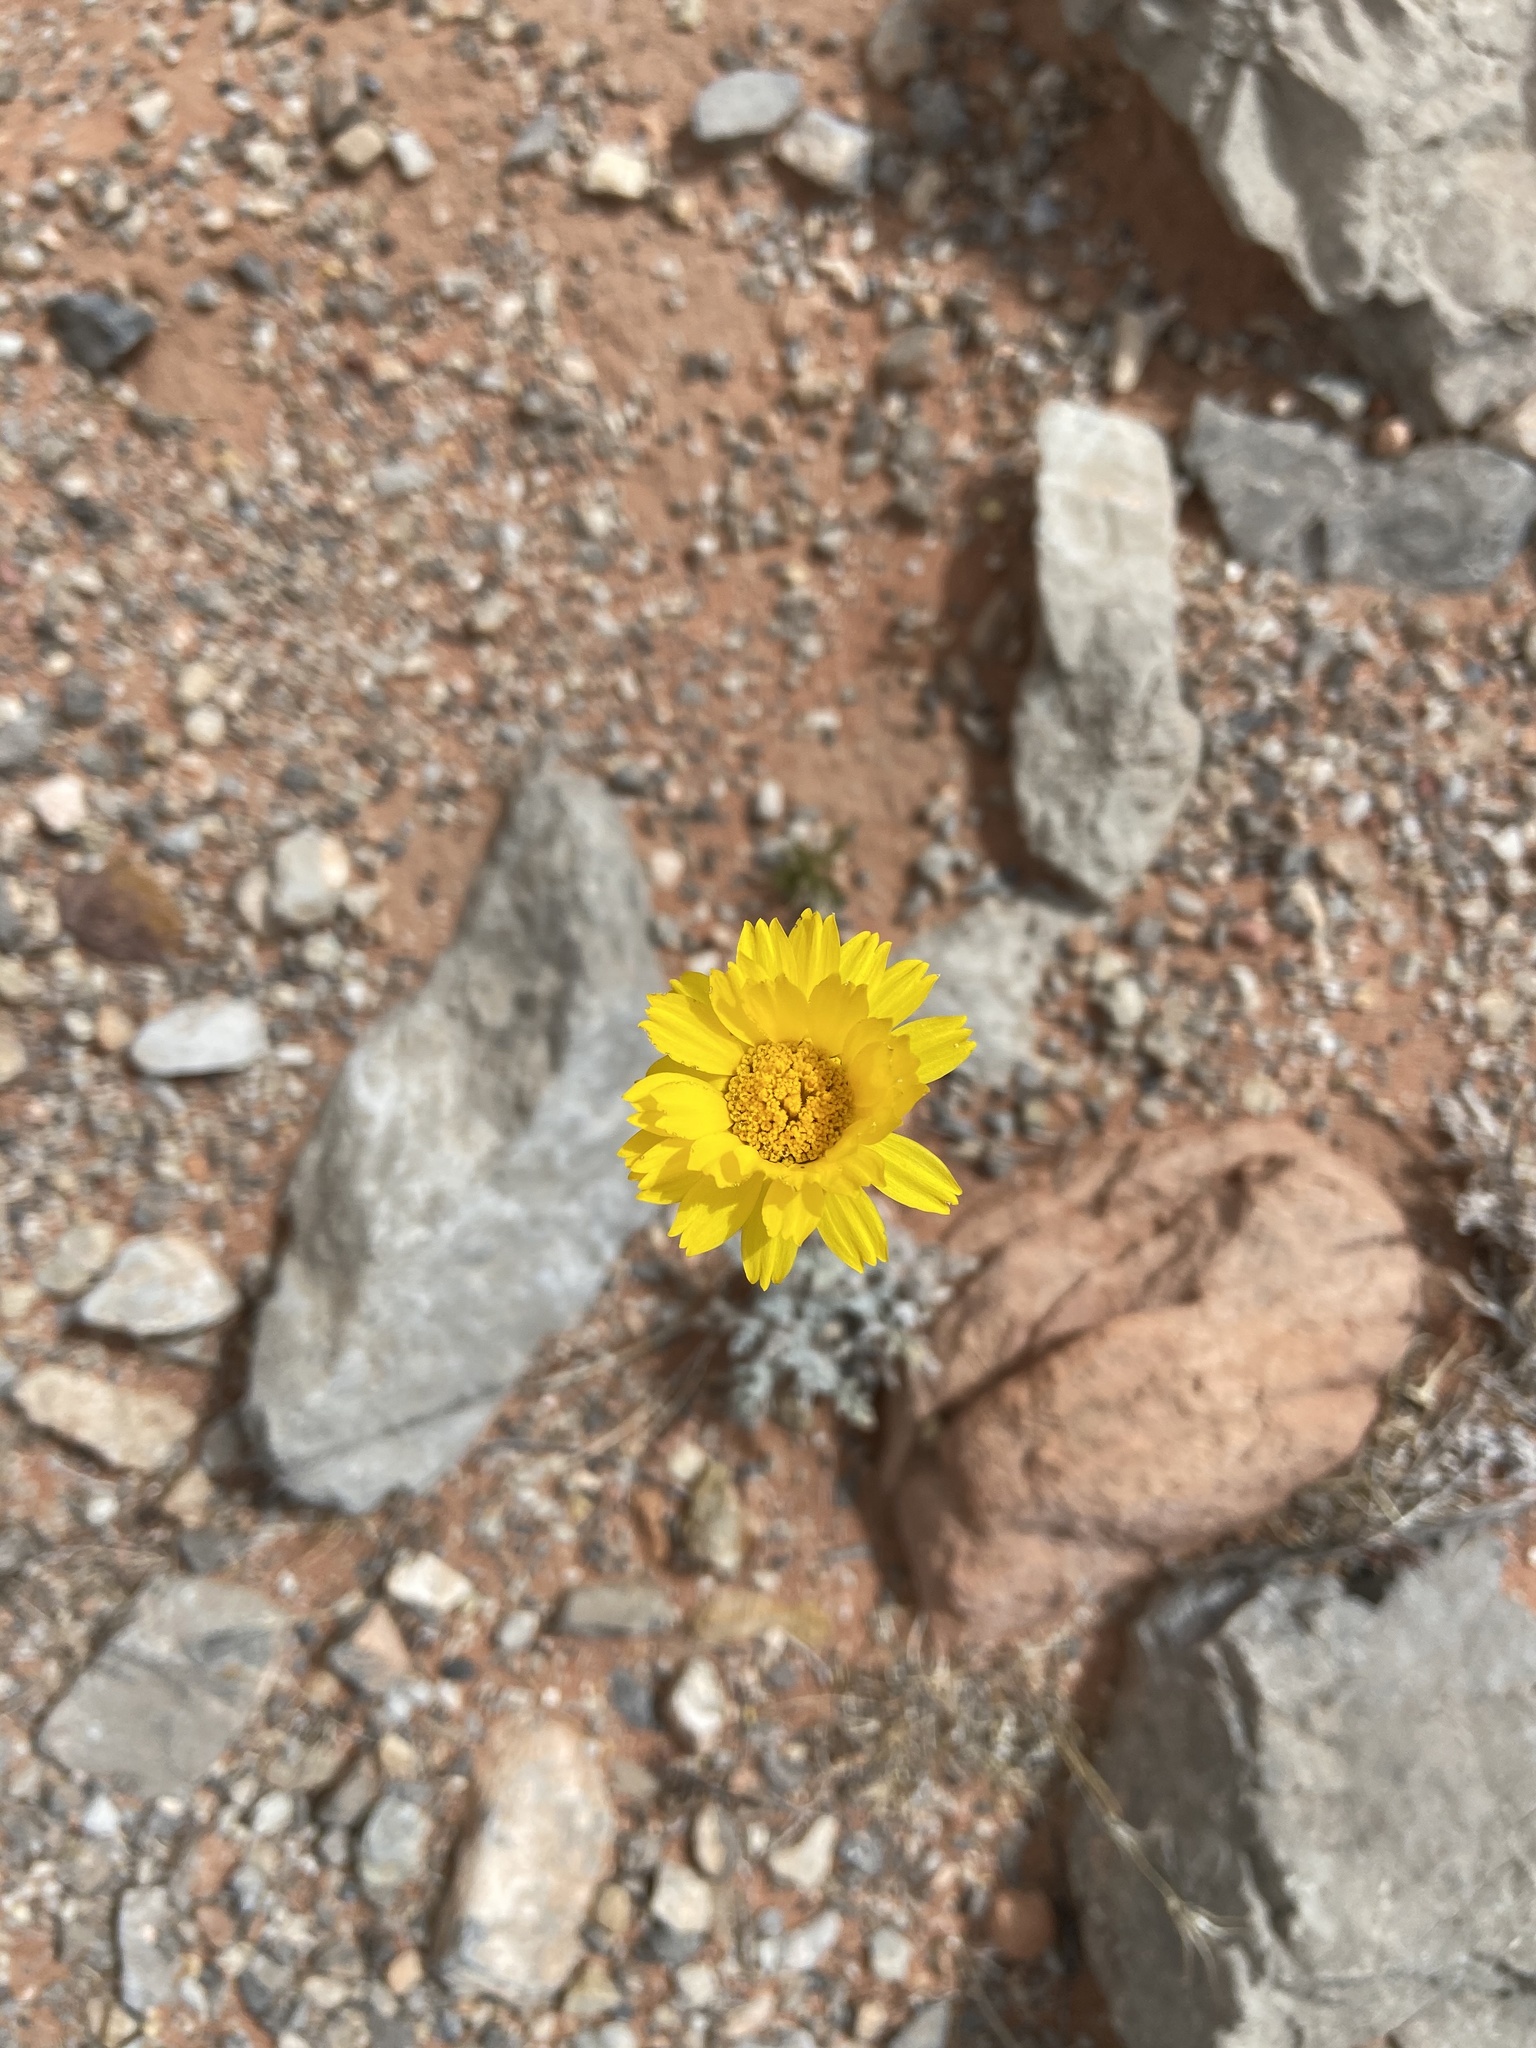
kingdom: Plantae
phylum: Tracheophyta
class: Magnoliopsida
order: Asterales
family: Asteraceae
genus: Baileya
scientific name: Baileya multiradiata
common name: Desert-marigold
